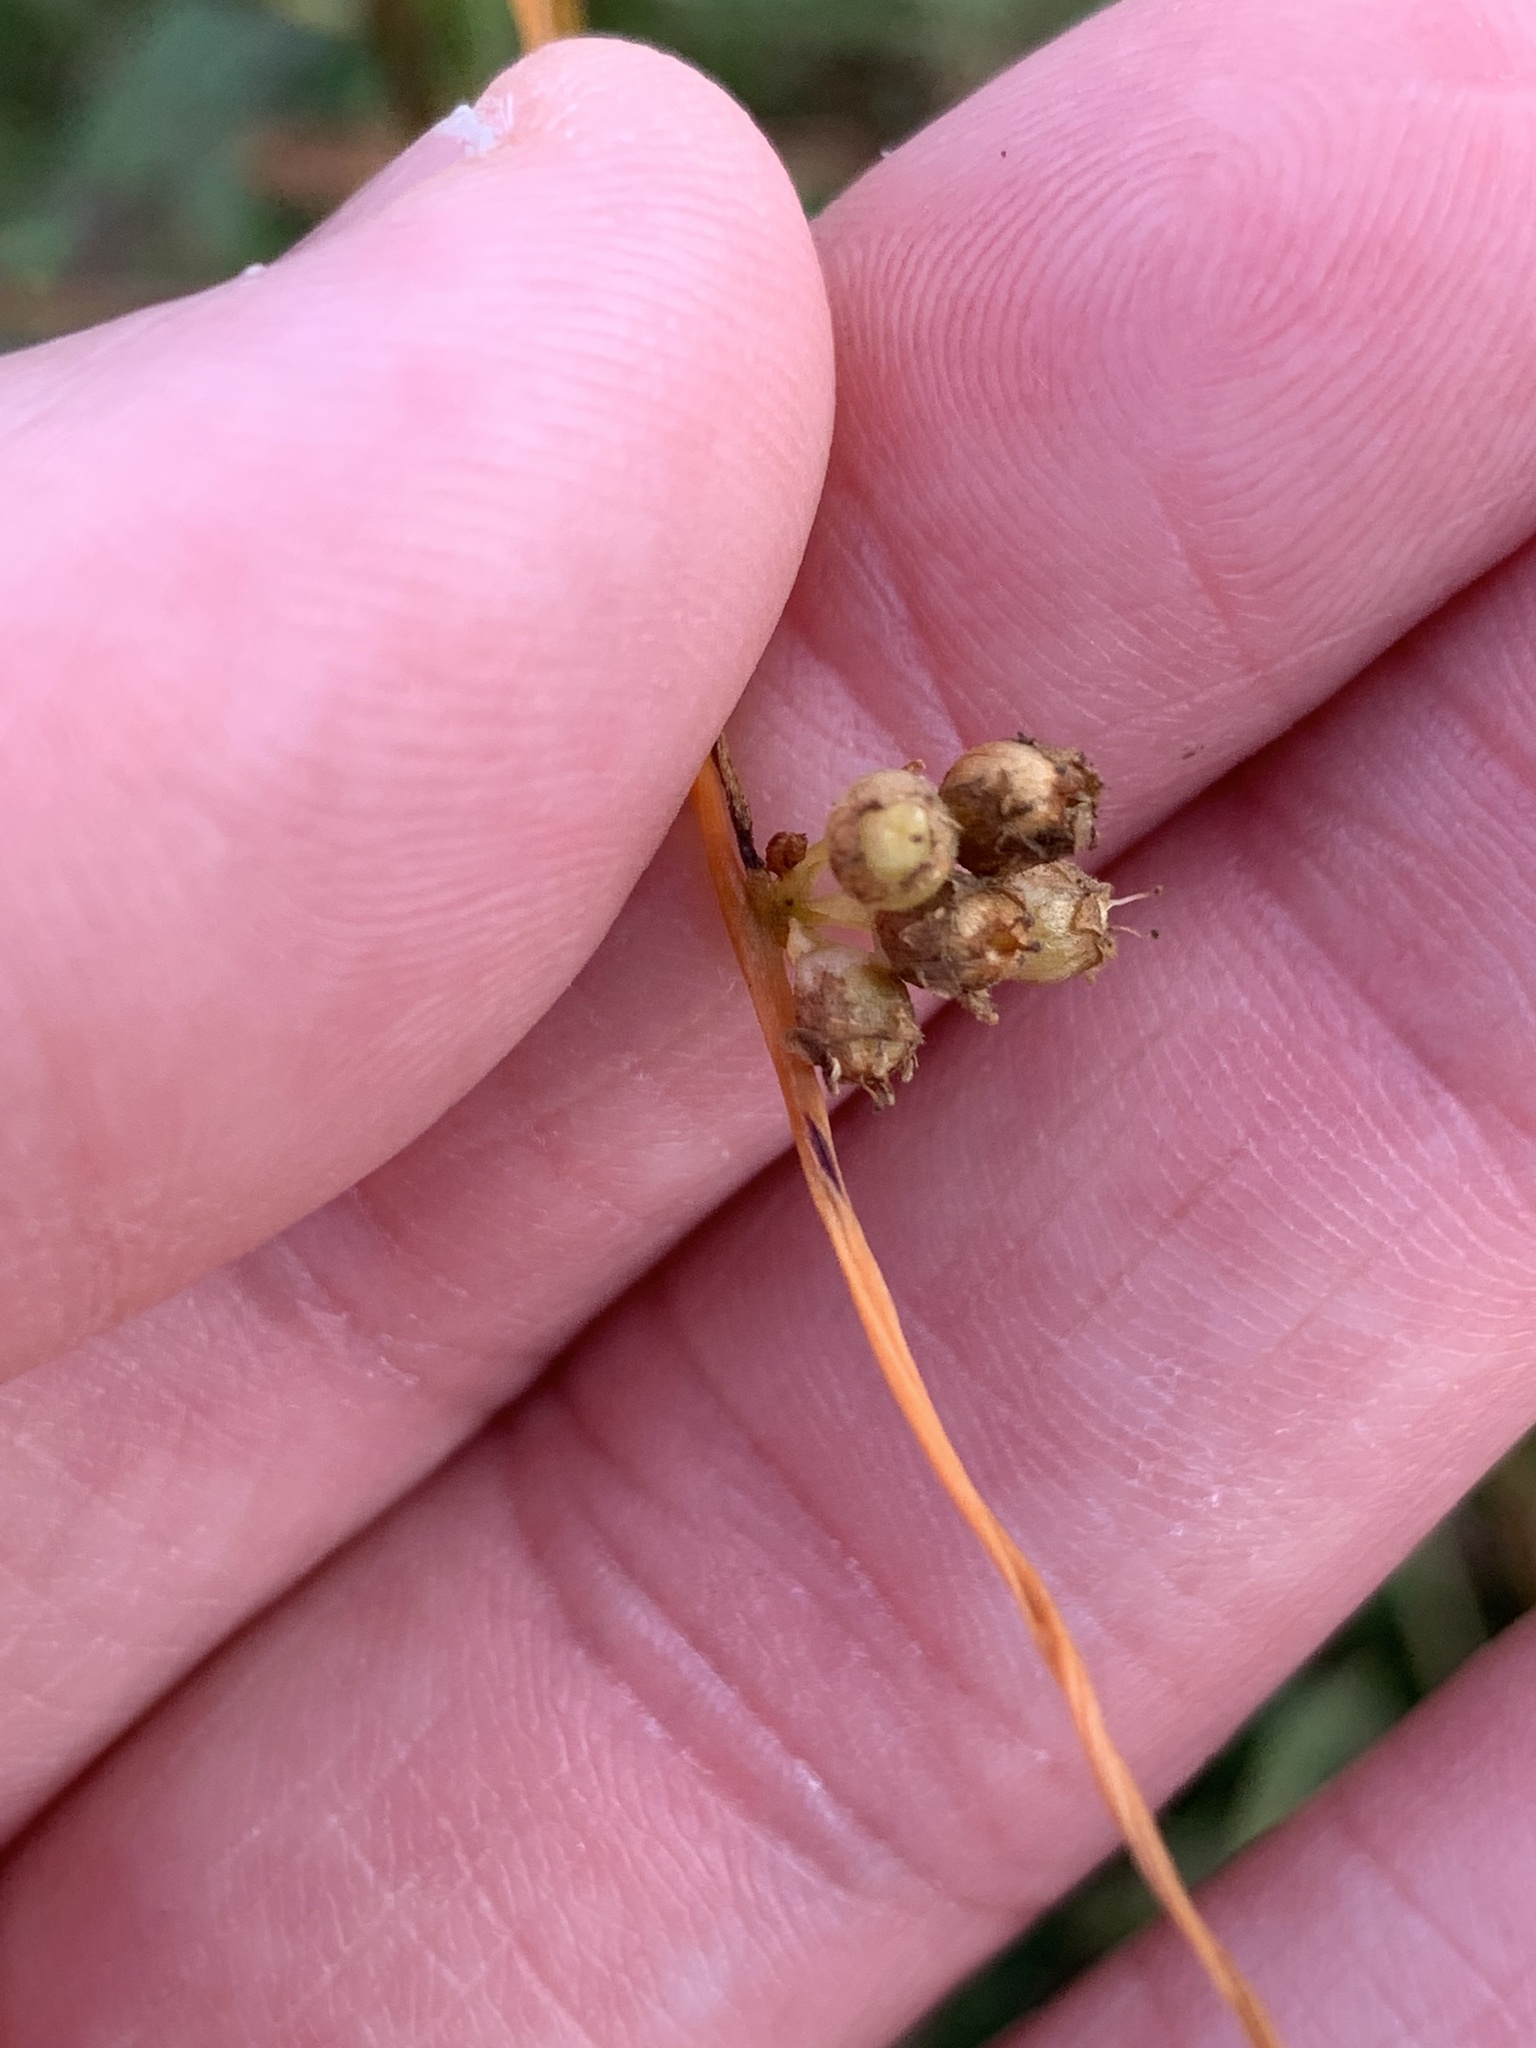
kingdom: Plantae
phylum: Tracheophyta
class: Magnoliopsida
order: Solanales
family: Convolvulaceae
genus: Cuscuta
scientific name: Cuscuta gronovii
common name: Common dodder
